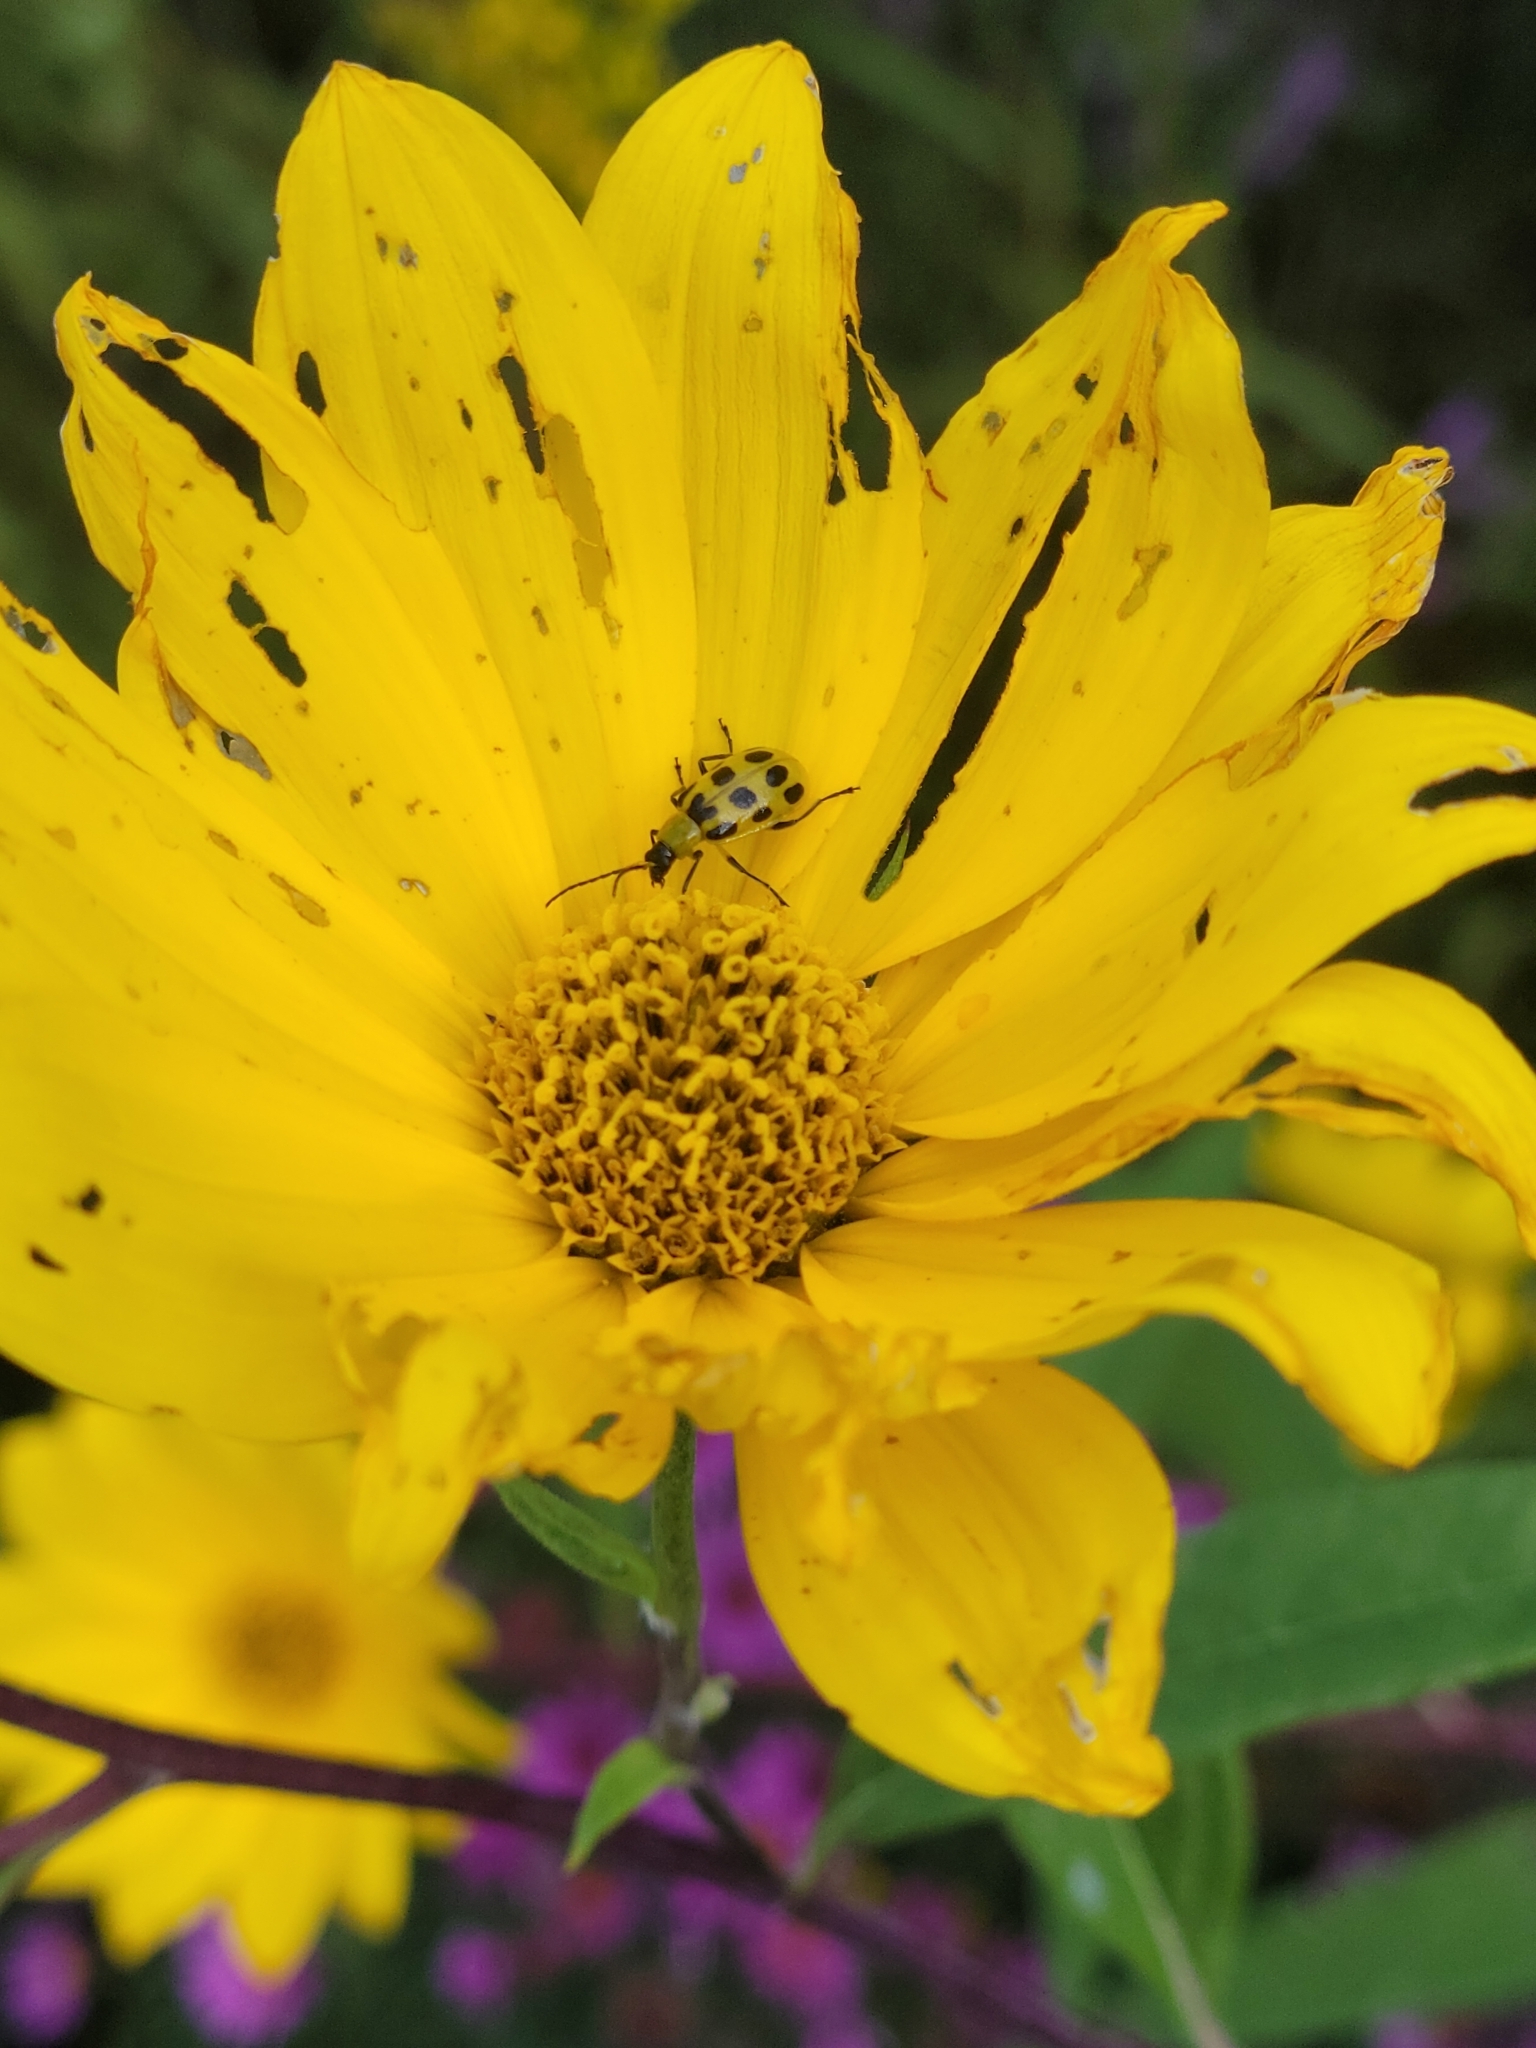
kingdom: Animalia
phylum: Arthropoda
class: Insecta
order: Coleoptera
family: Chrysomelidae
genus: Diabrotica
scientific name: Diabrotica undecimpunctata
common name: Spotted cucumber beetle
